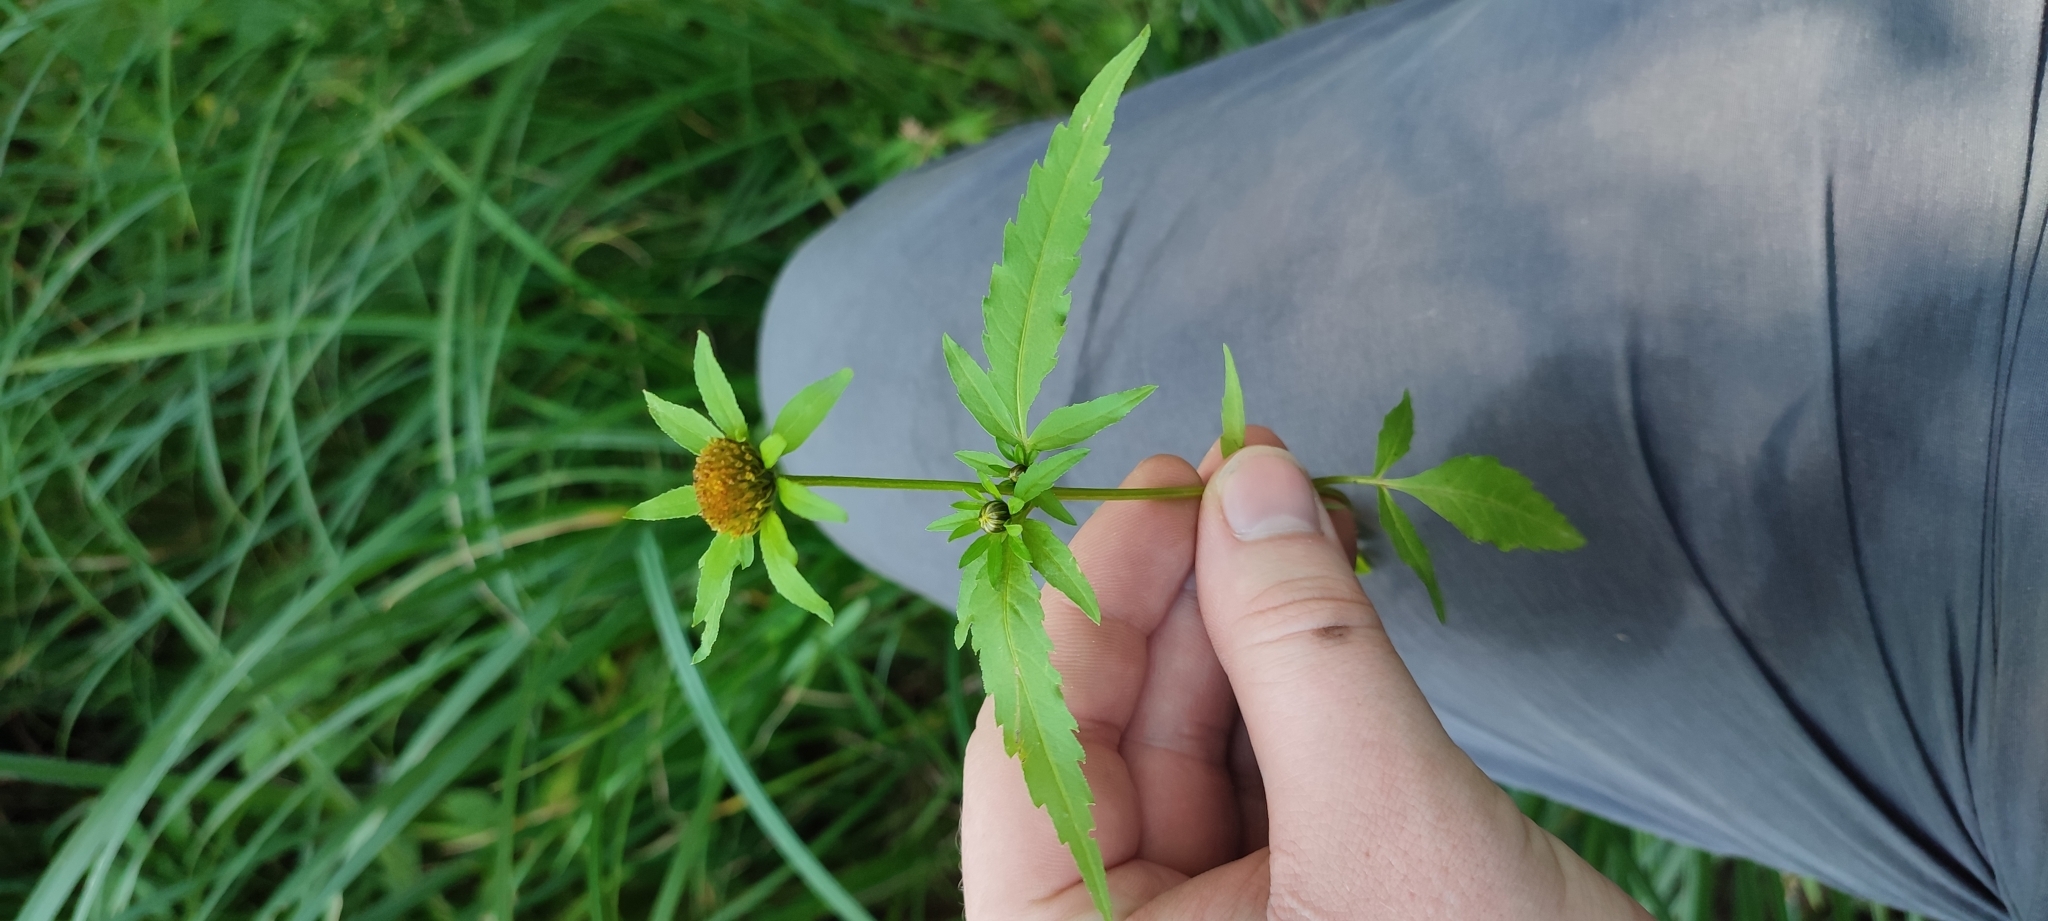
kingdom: Plantae
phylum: Tracheophyta
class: Magnoliopsida
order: Asterales
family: Asteraceae
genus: Bidens
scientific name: Bidens radiata
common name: Radiating bur-marigold
